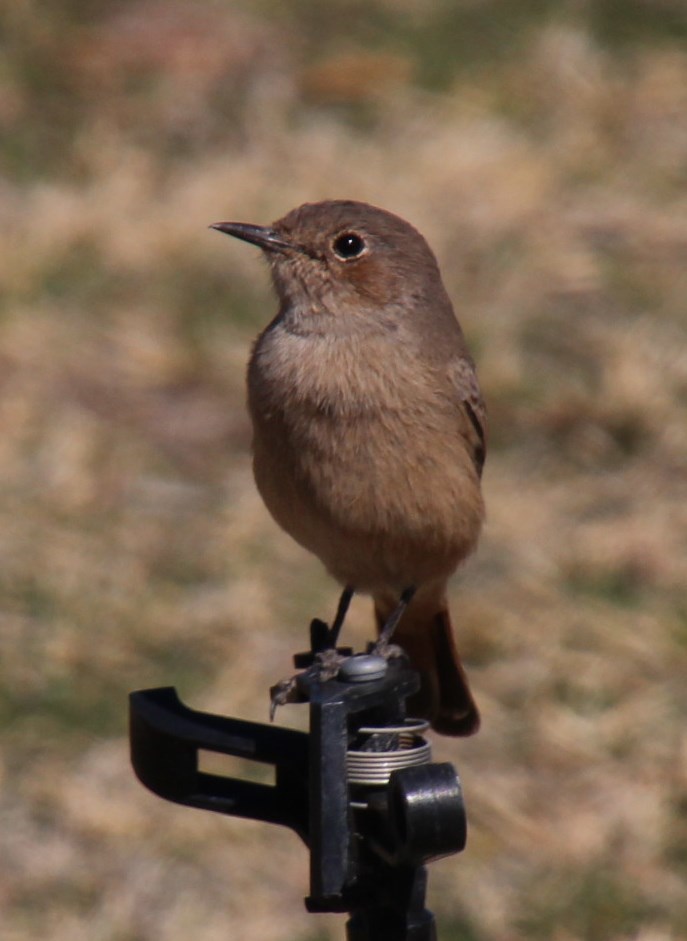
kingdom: Animalia
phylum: Chordata
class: Aves
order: Passeriformes
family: Muscicapidae
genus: Oenanthe
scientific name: Oenanthe familiaris
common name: Familiar chat
